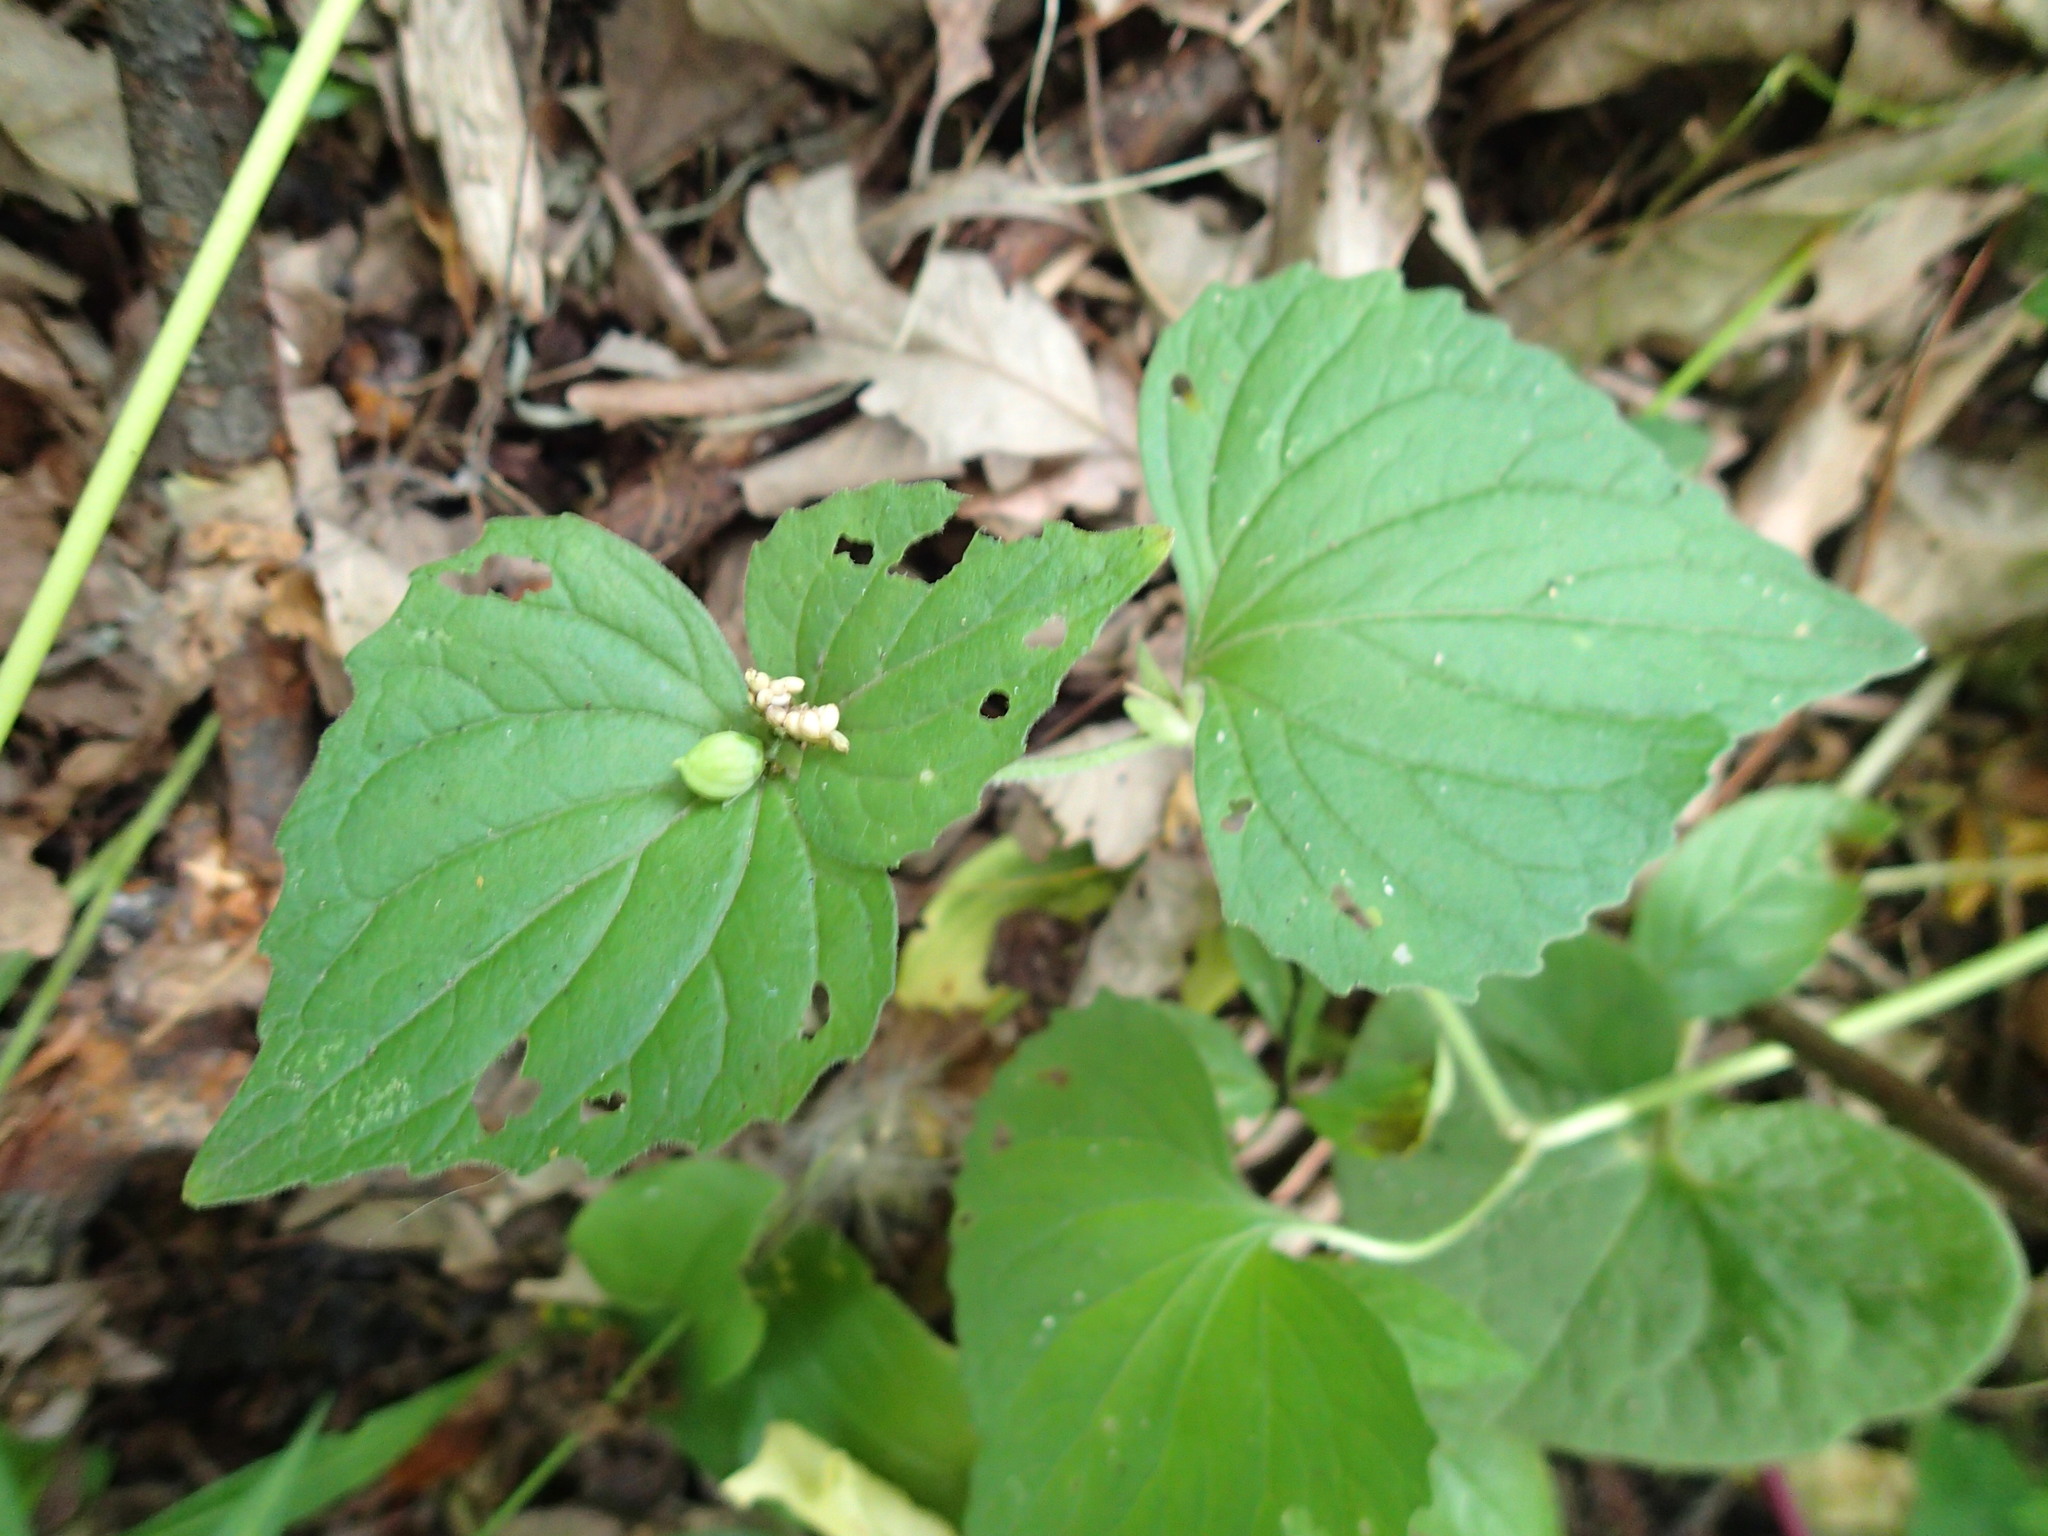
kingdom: Plantae
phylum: Tracheophyta
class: Magnoliopsida
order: Malpighiales
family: Violaceae
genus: Viola
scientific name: Viola rugulosa
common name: Creeping-root violet
